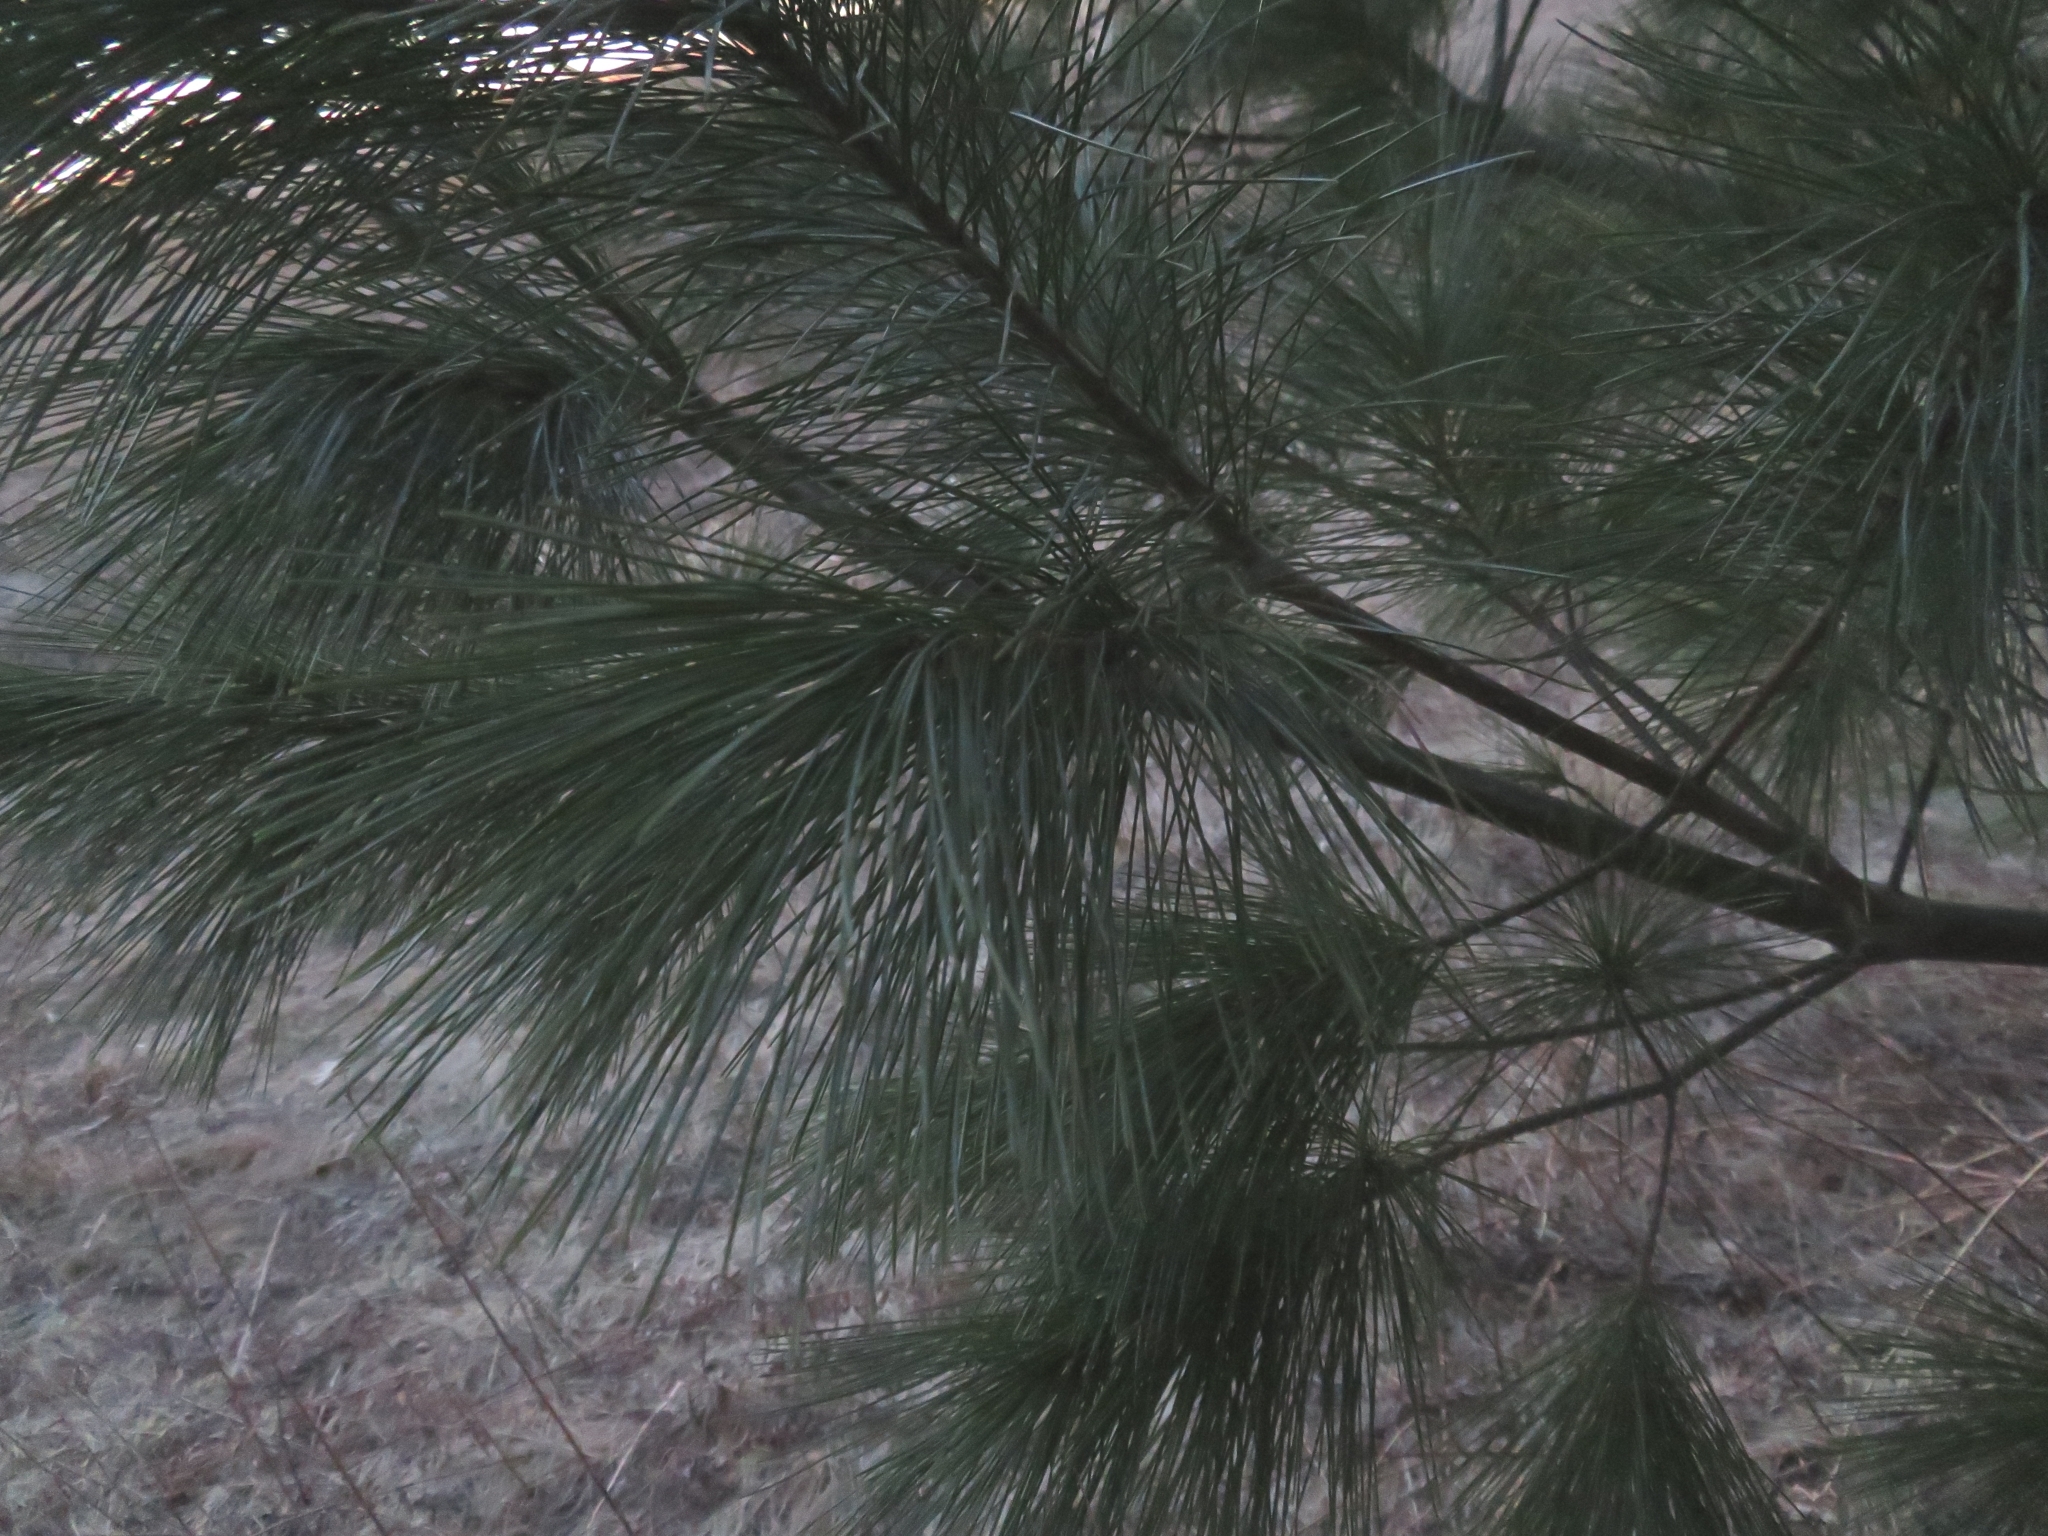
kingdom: Plantae
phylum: Tracheophyta
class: Pinopsida
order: Pinales
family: Pinaceae
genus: Pinus
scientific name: Pinus strobus
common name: Weymouth pine
